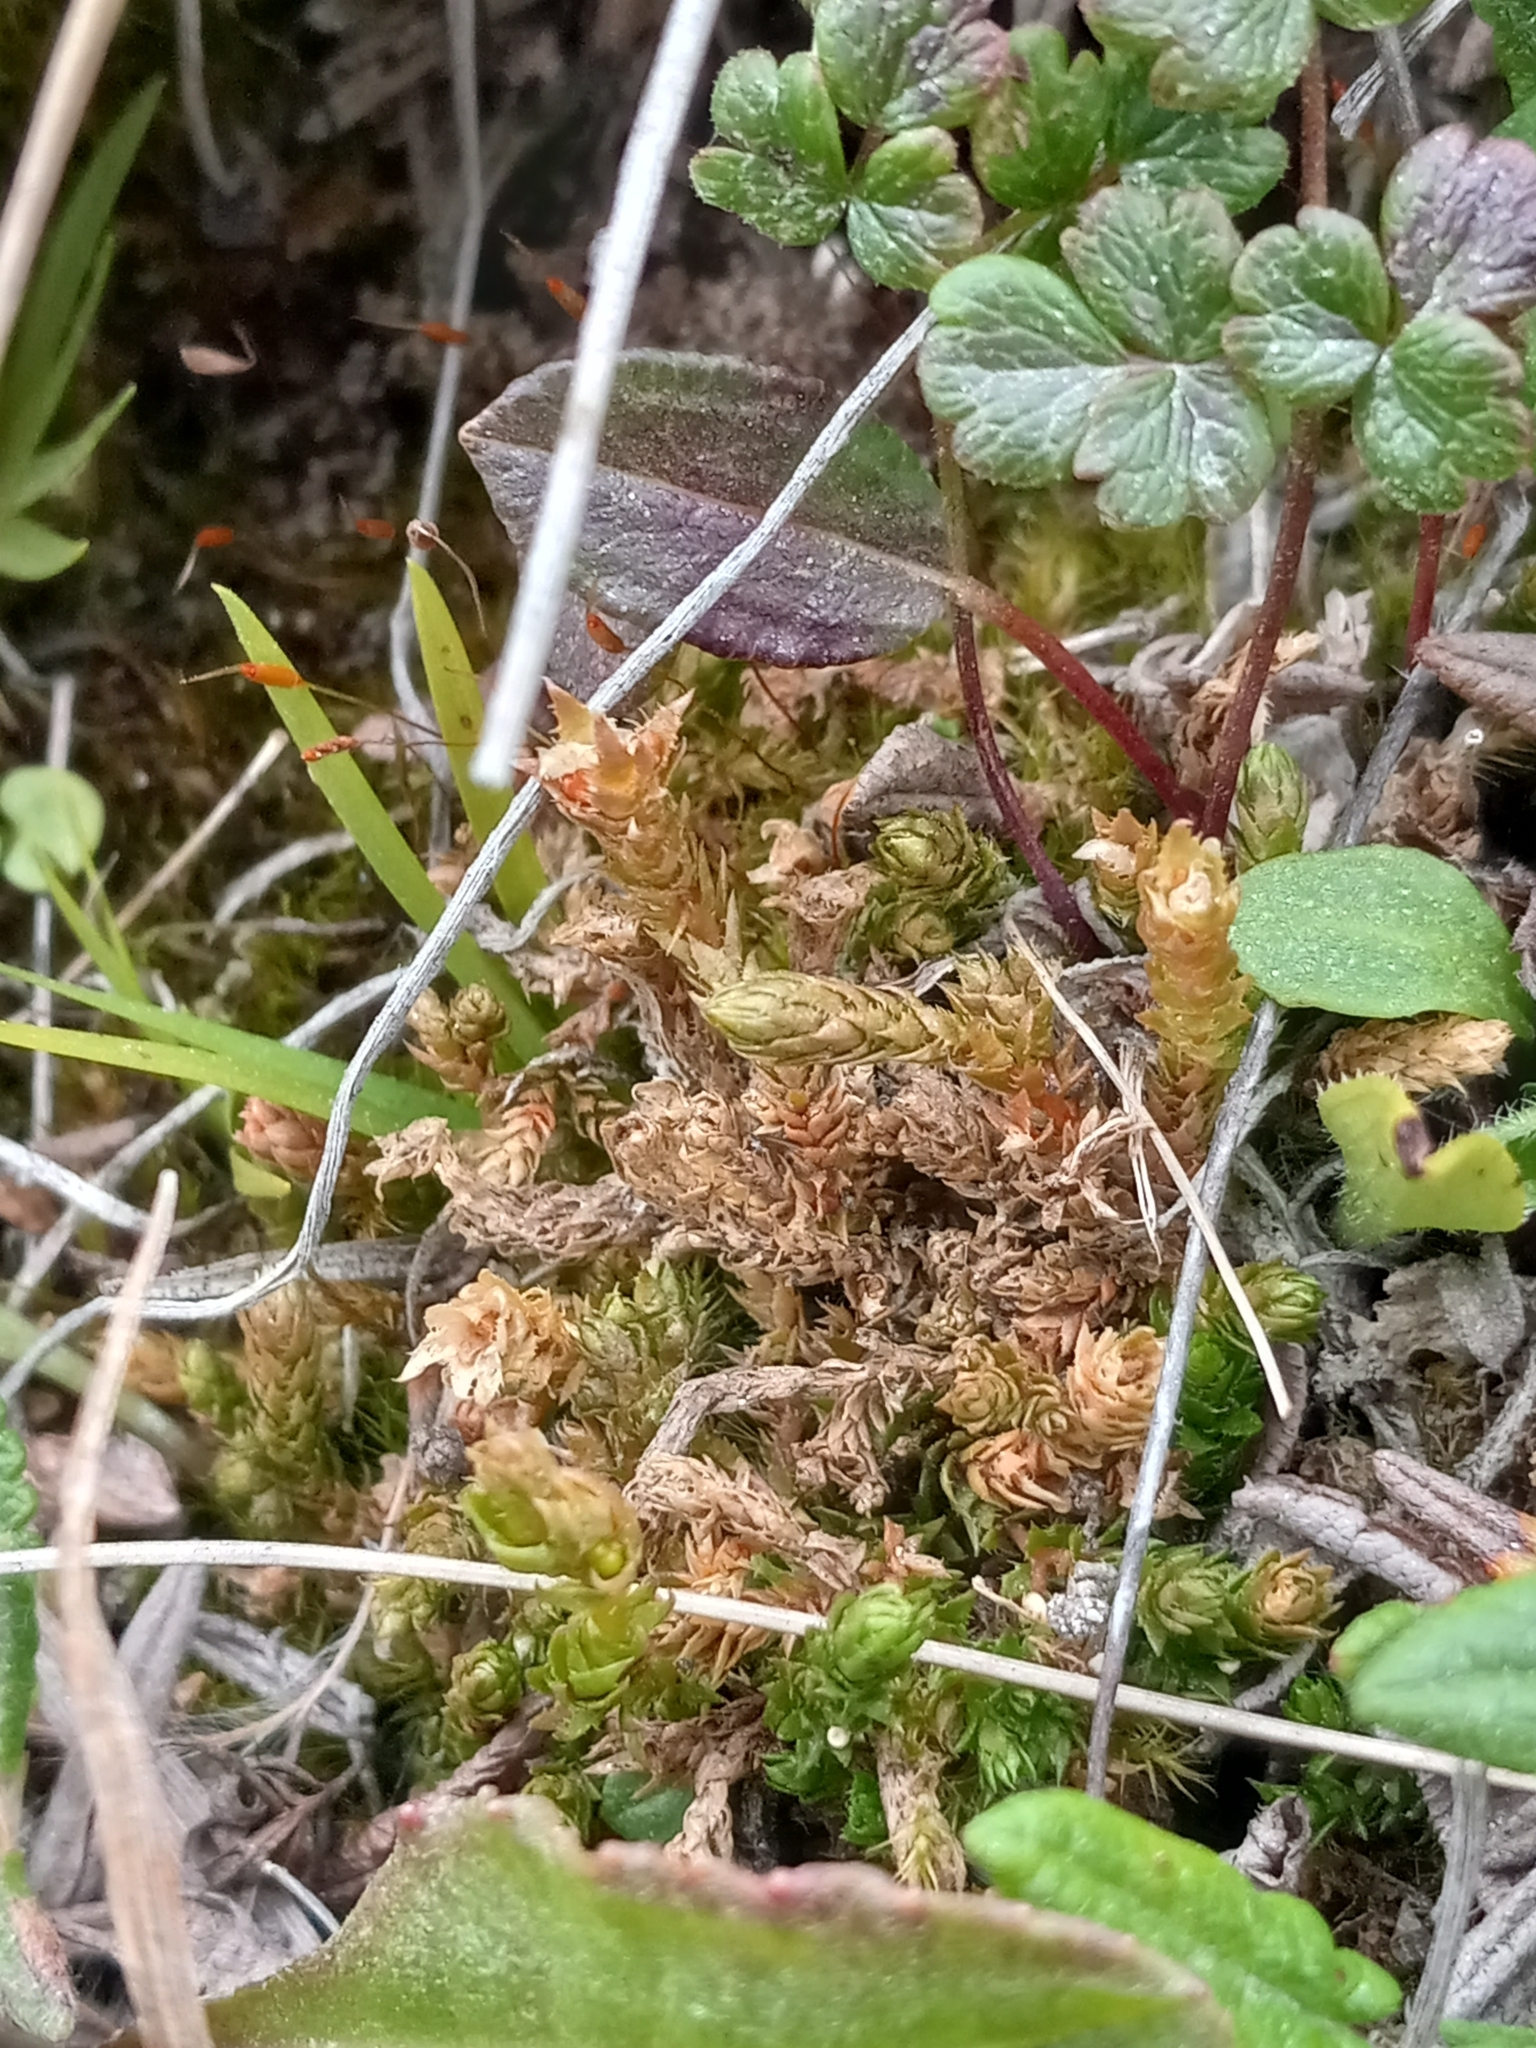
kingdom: Plantae
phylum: Tracheophyta
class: Lycopodiopsida
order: Selaginellales
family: Selaginellaceae
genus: Selaginella
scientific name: Selaginella selaginoides
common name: Prickly mountain-moss
